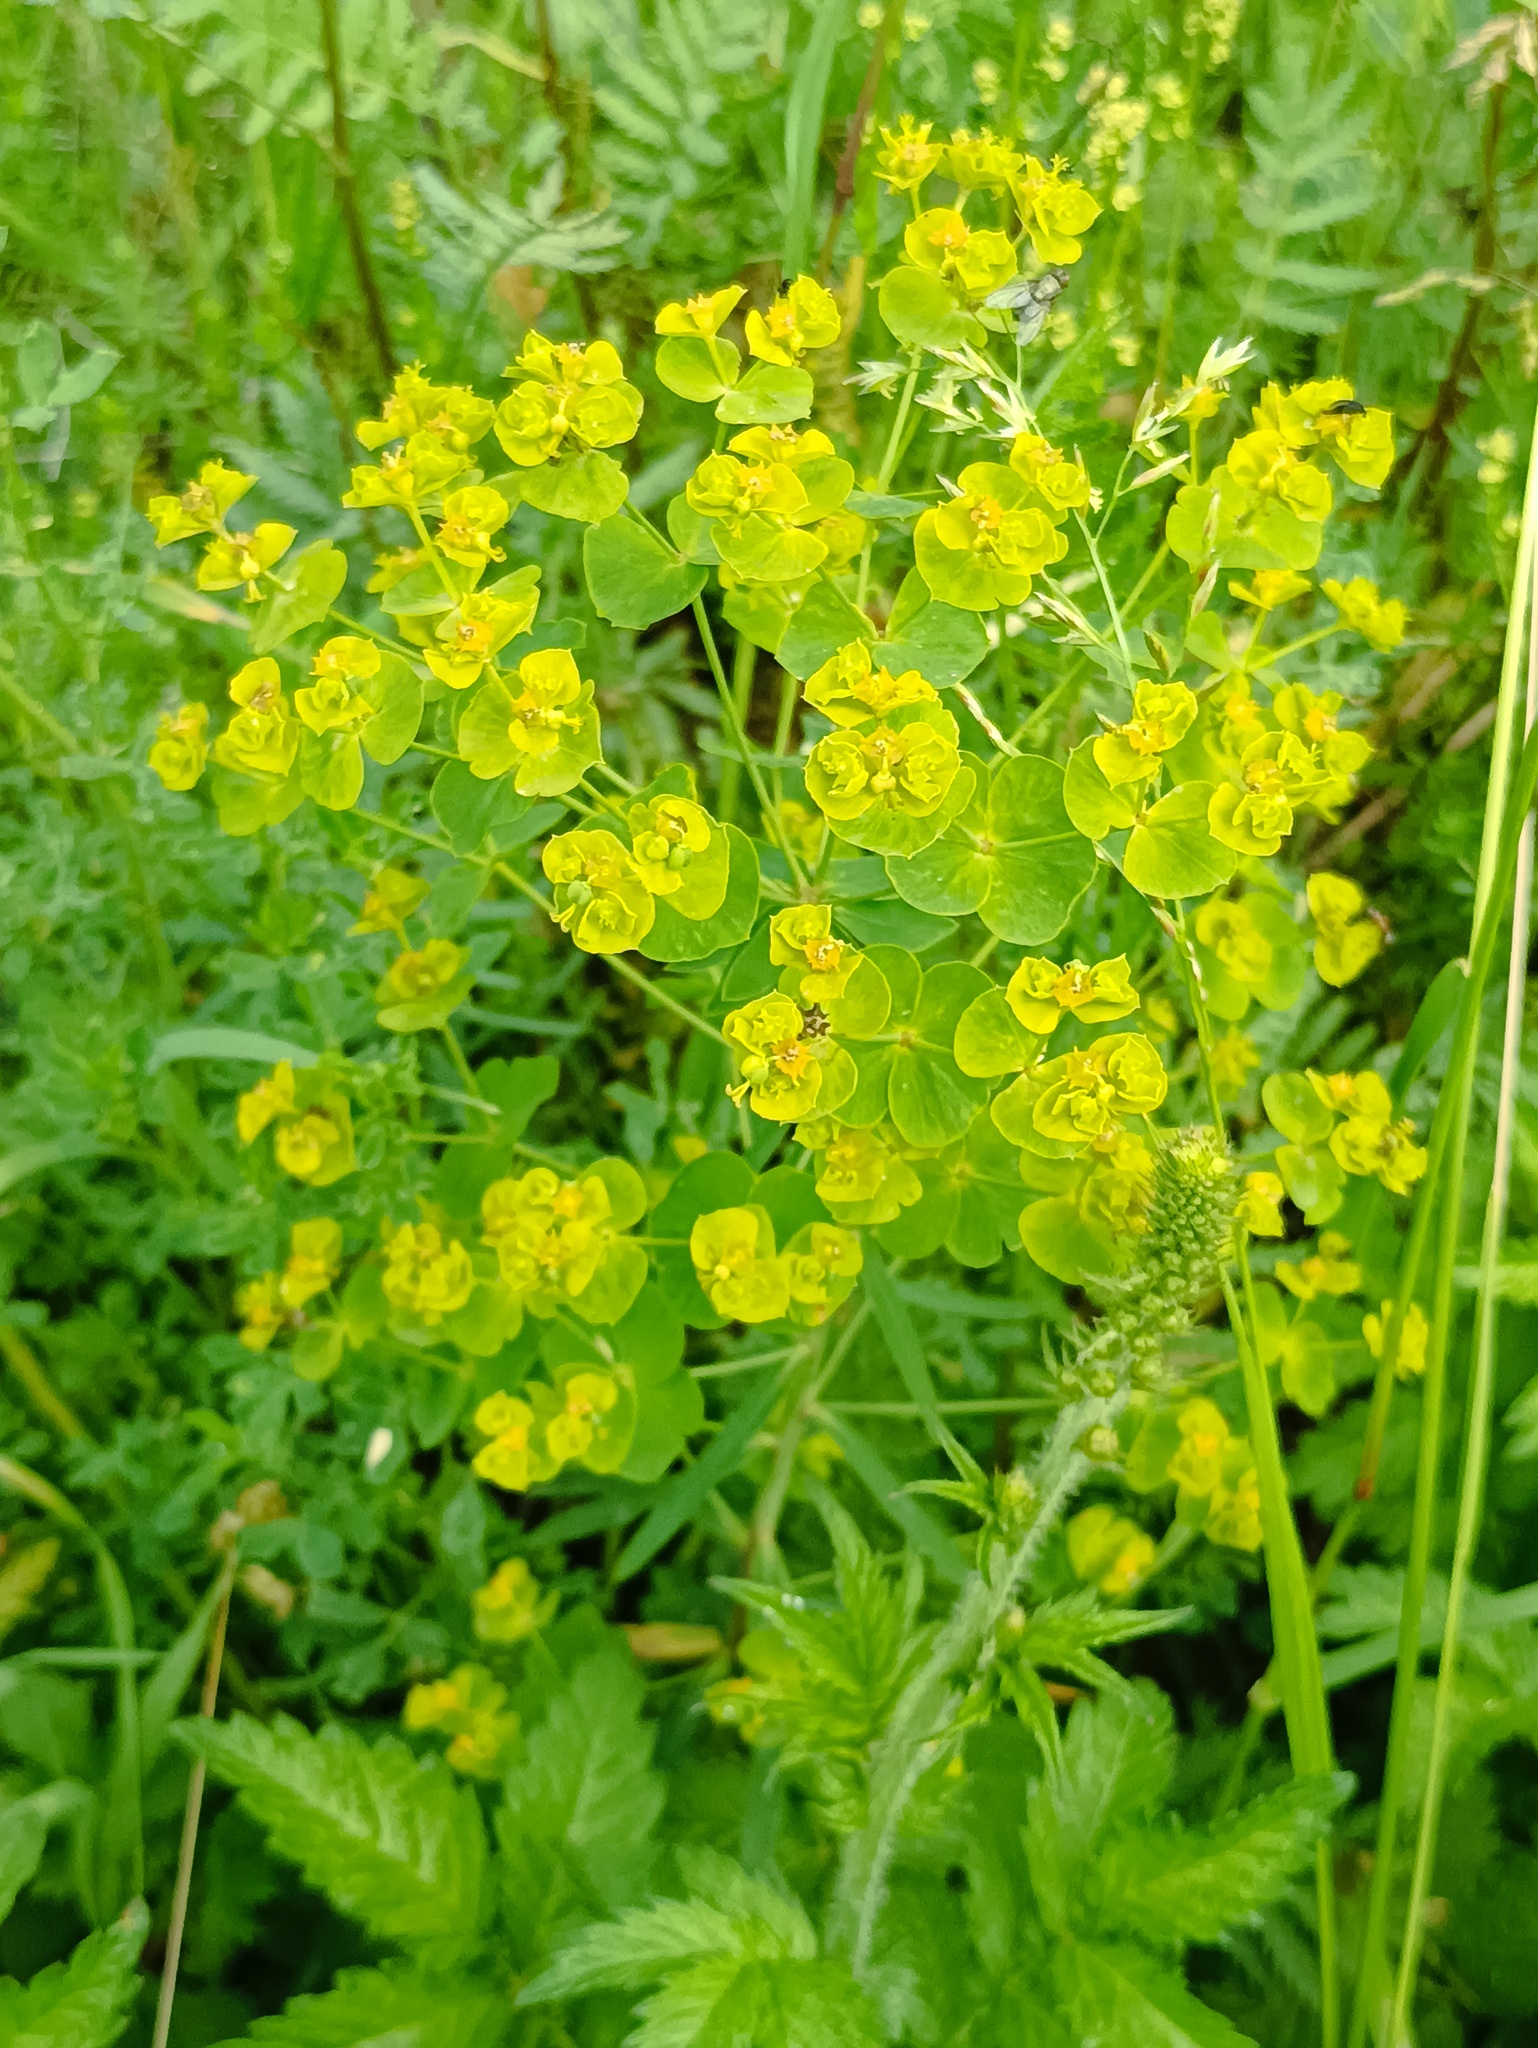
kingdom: Plantae
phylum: Tracheophyta
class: Magnoliopsida
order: Malpighiales
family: Euphorbiaceae
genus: Euphorbia
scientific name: Euphorbia virgata
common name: Leafy spurge
